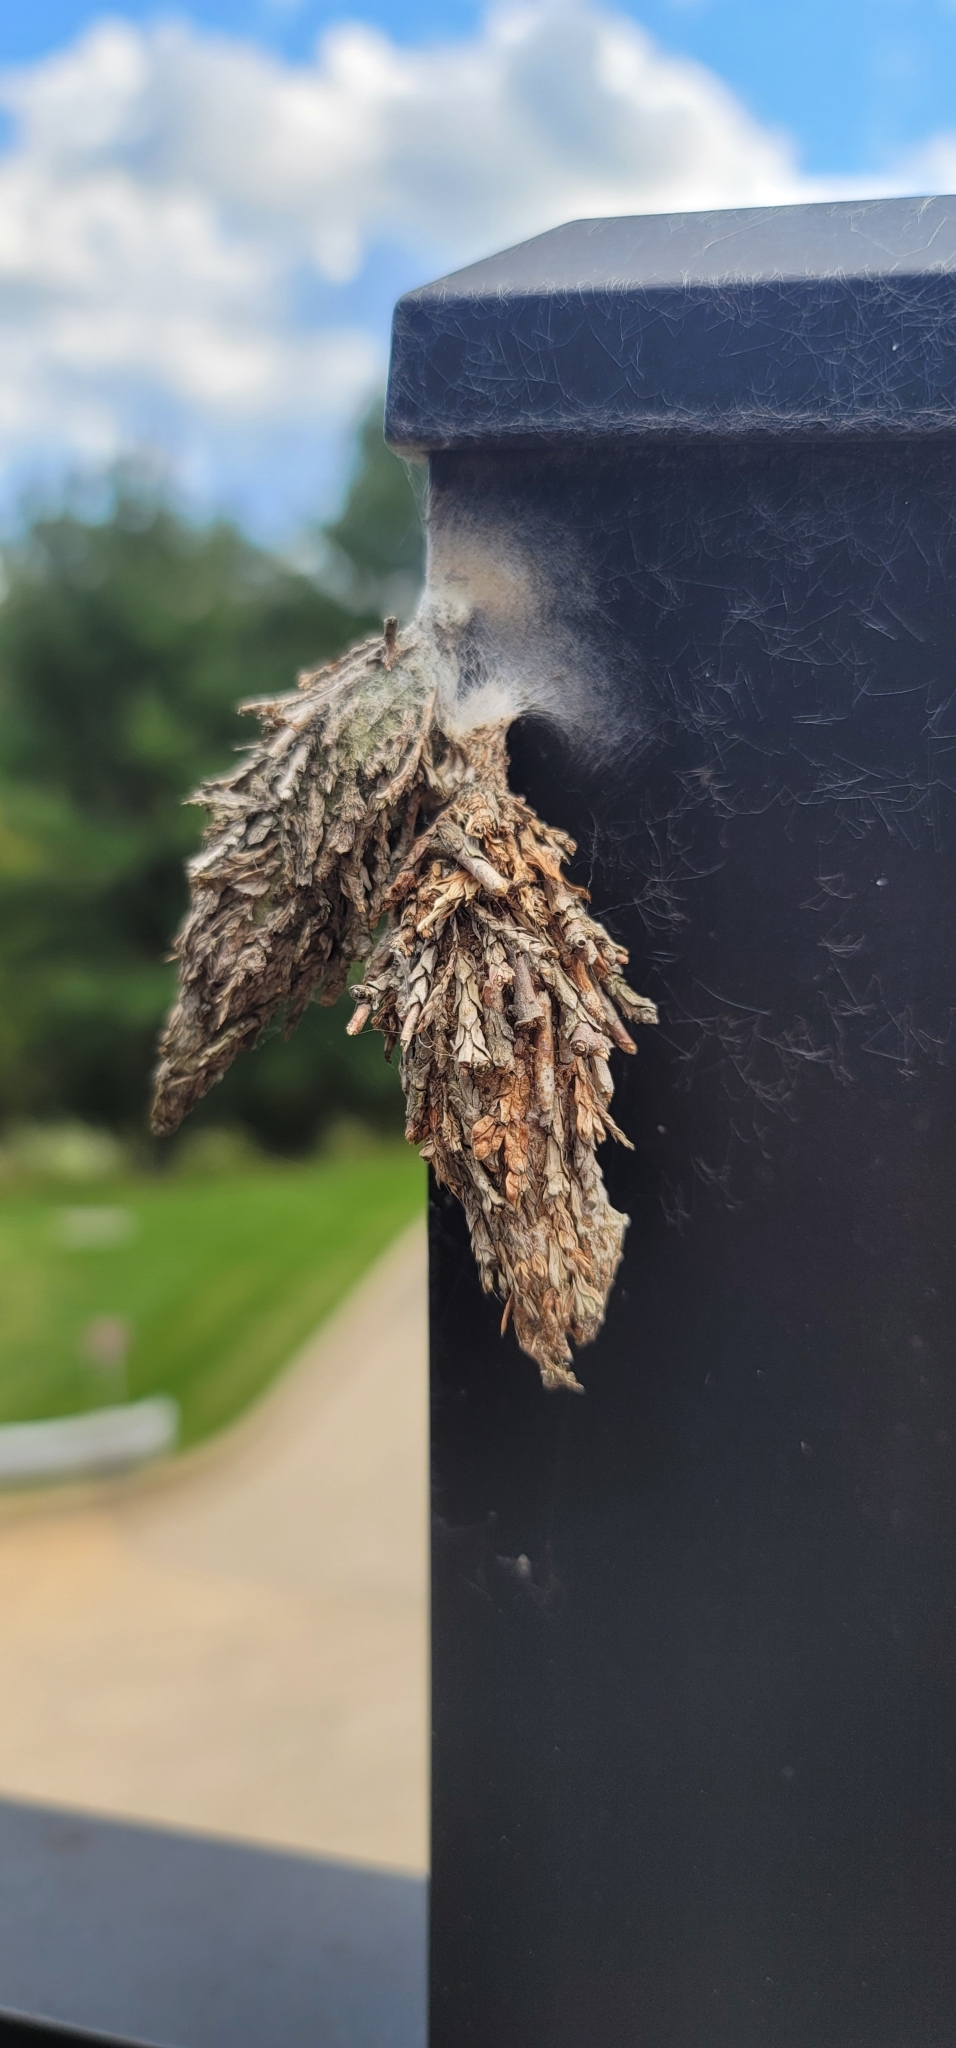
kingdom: Animalia
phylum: Arthropoda
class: Insecta
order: Lepidoptera
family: Psychidae
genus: Thyridopteryx
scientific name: Thyridopteryx ephemeraeformis
